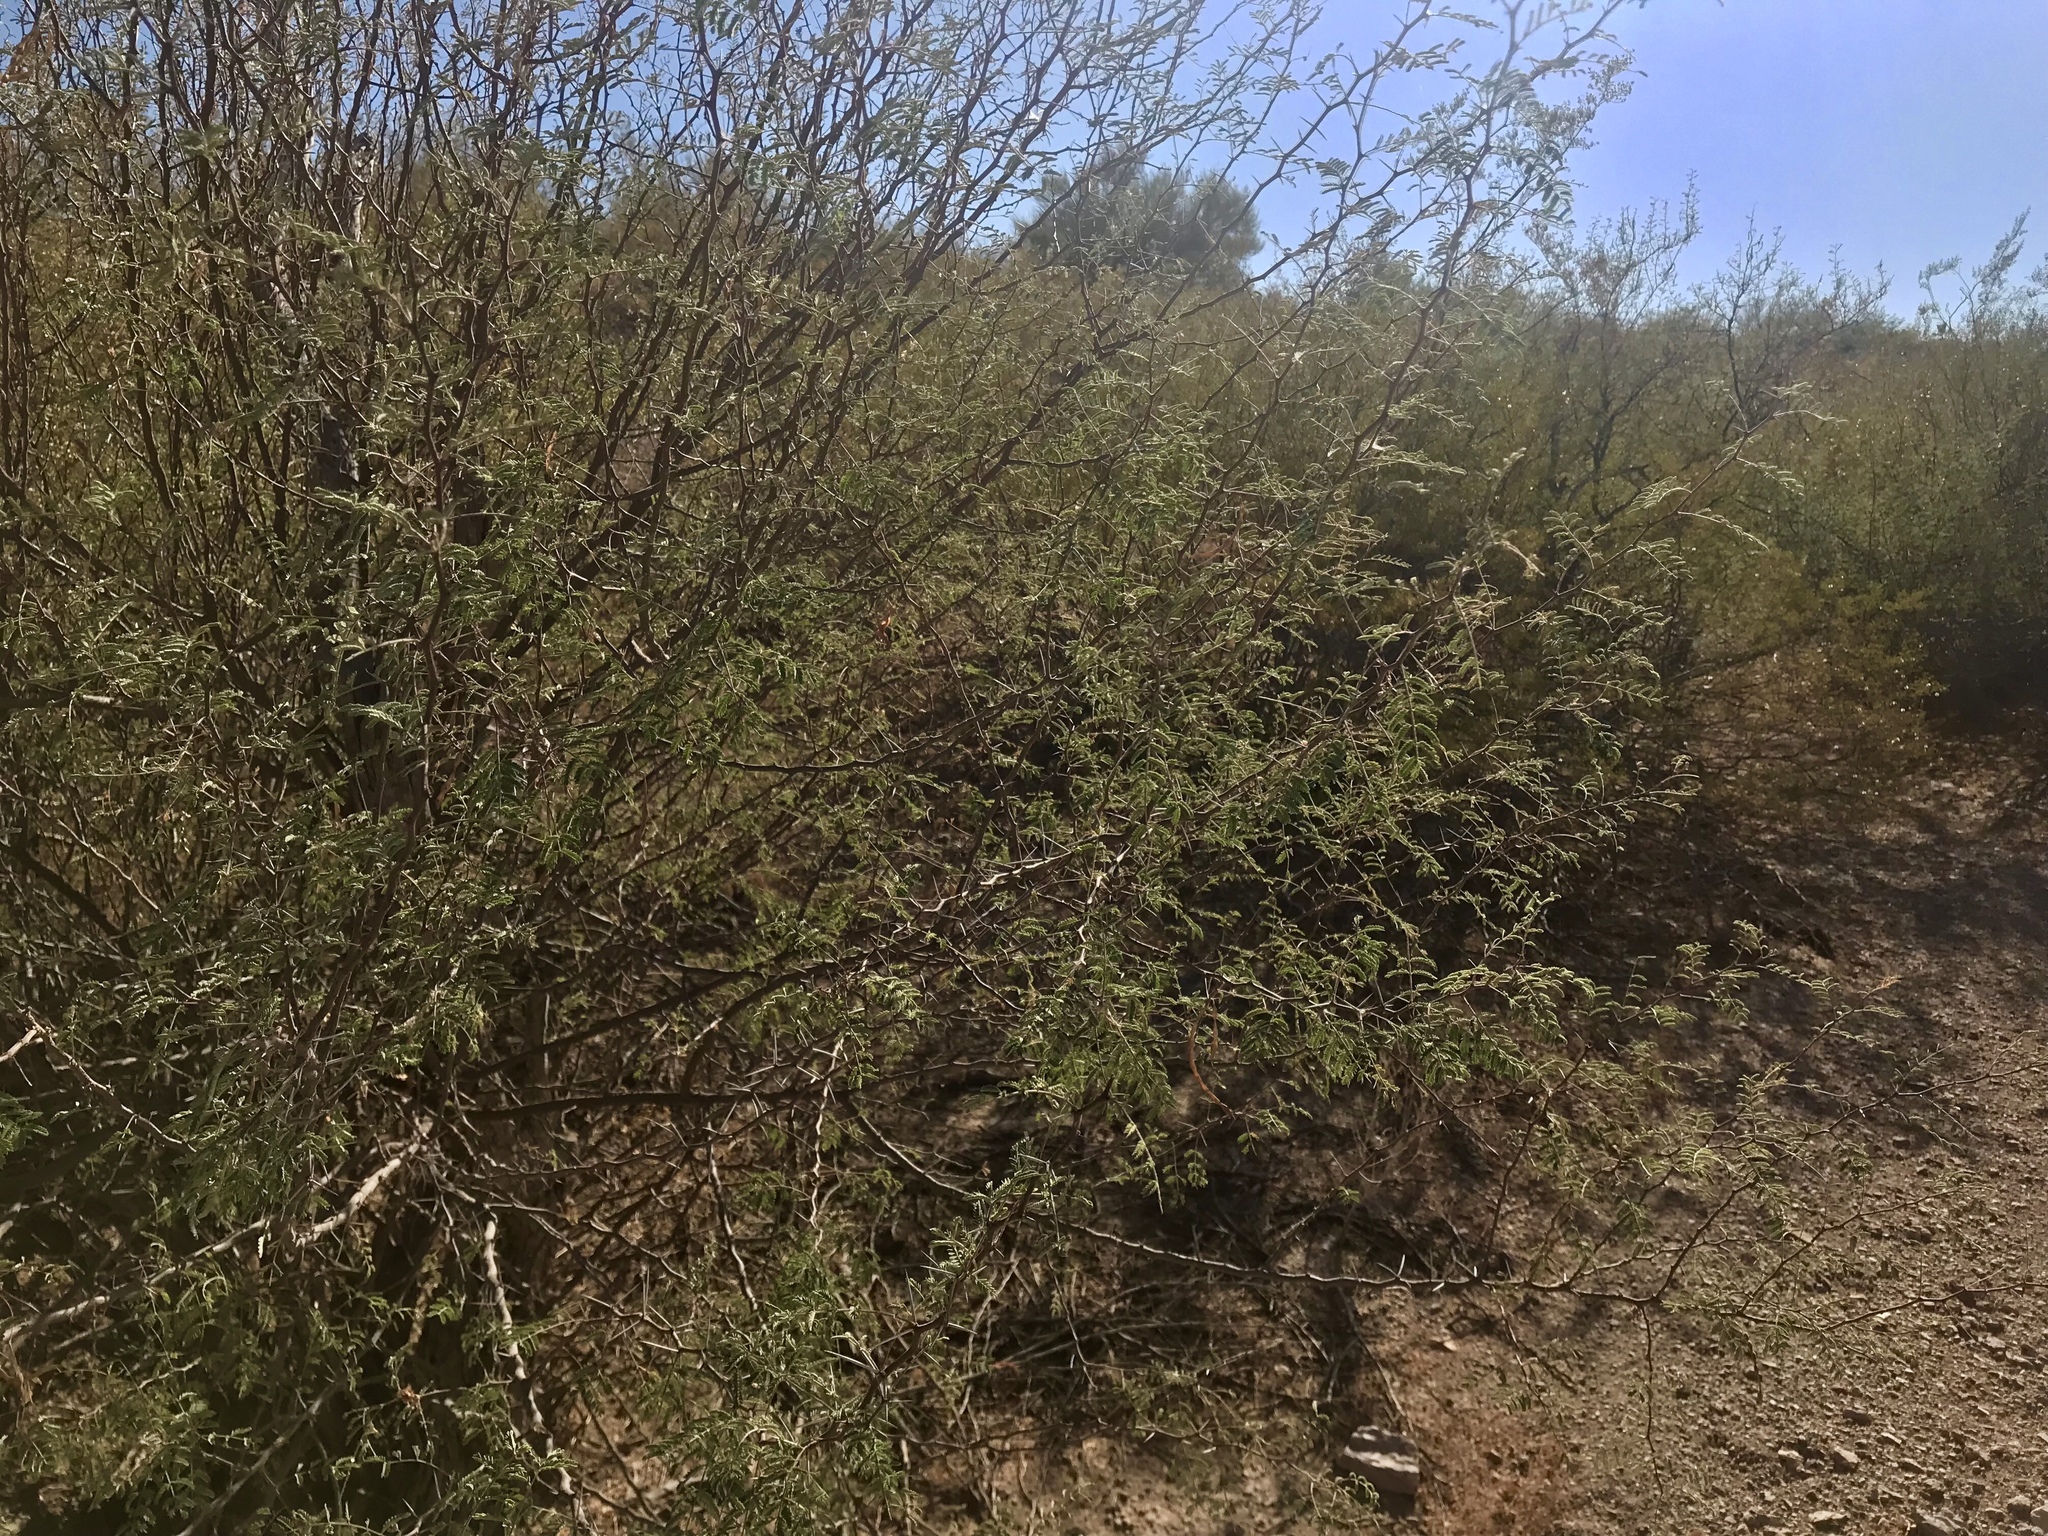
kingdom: Plantae
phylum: Tracheophyta
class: Magnoliopsida
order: Fabales
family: Fabaceae
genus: Vachellia
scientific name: Vachellia constricta
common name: Mescat acacia
